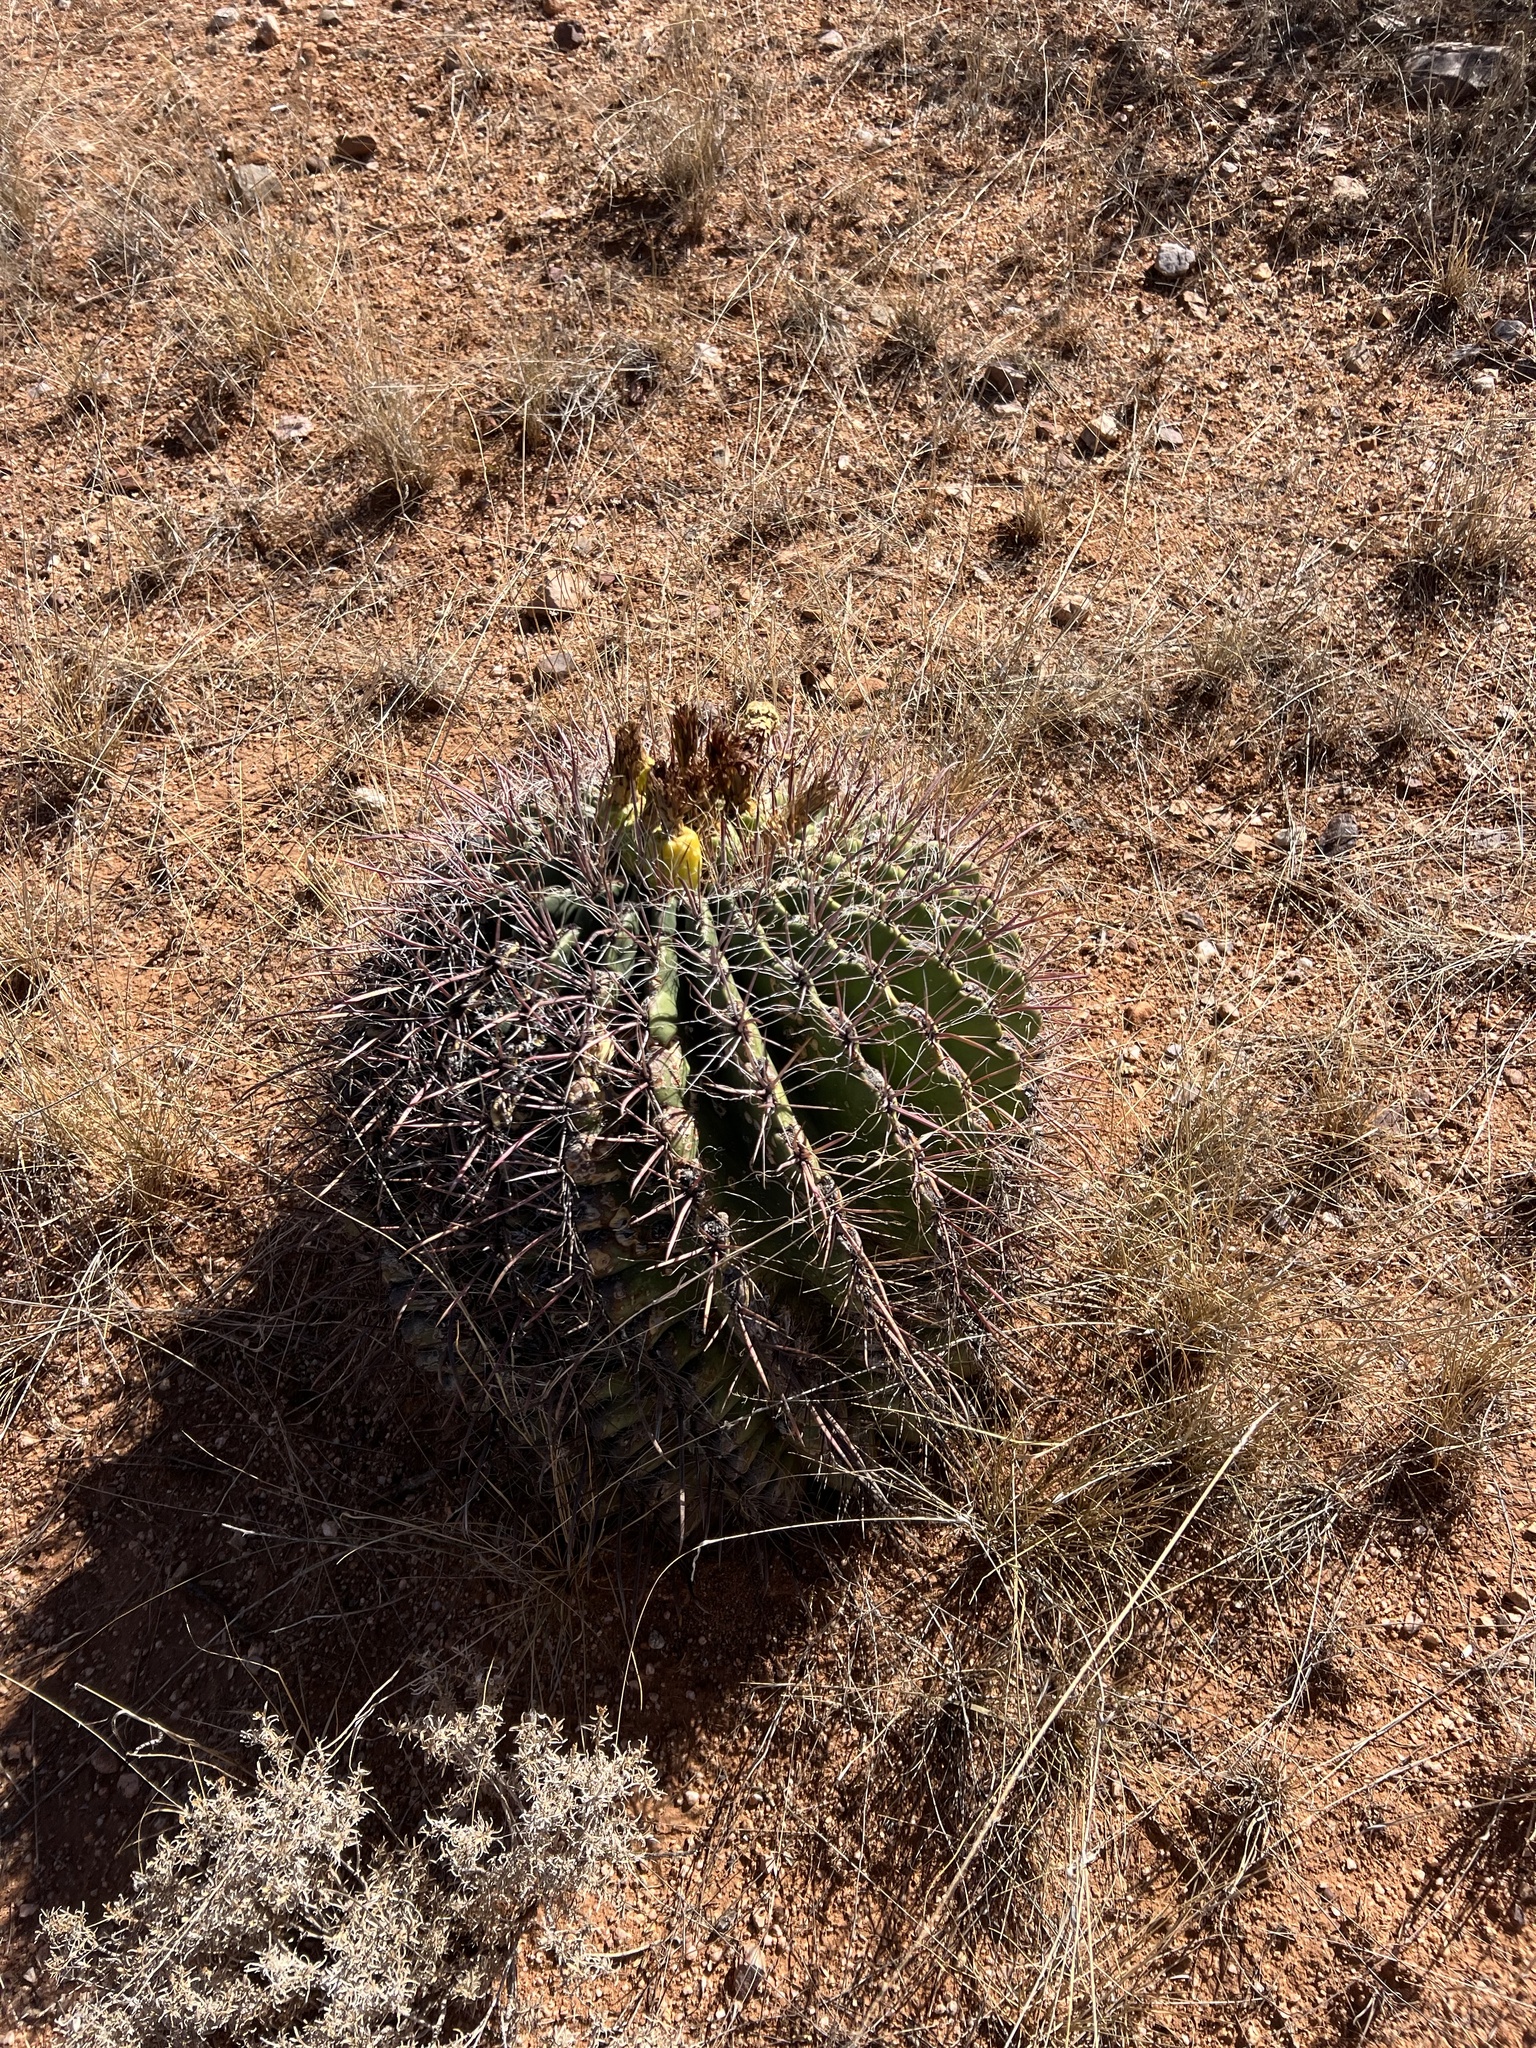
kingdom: Plantae
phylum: Tracheophyta
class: Magnoliopsida
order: Caryophyllales
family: Cactaceae
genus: Ferocactus
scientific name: Ferocactus wislizeni
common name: Candy barrel cactus
